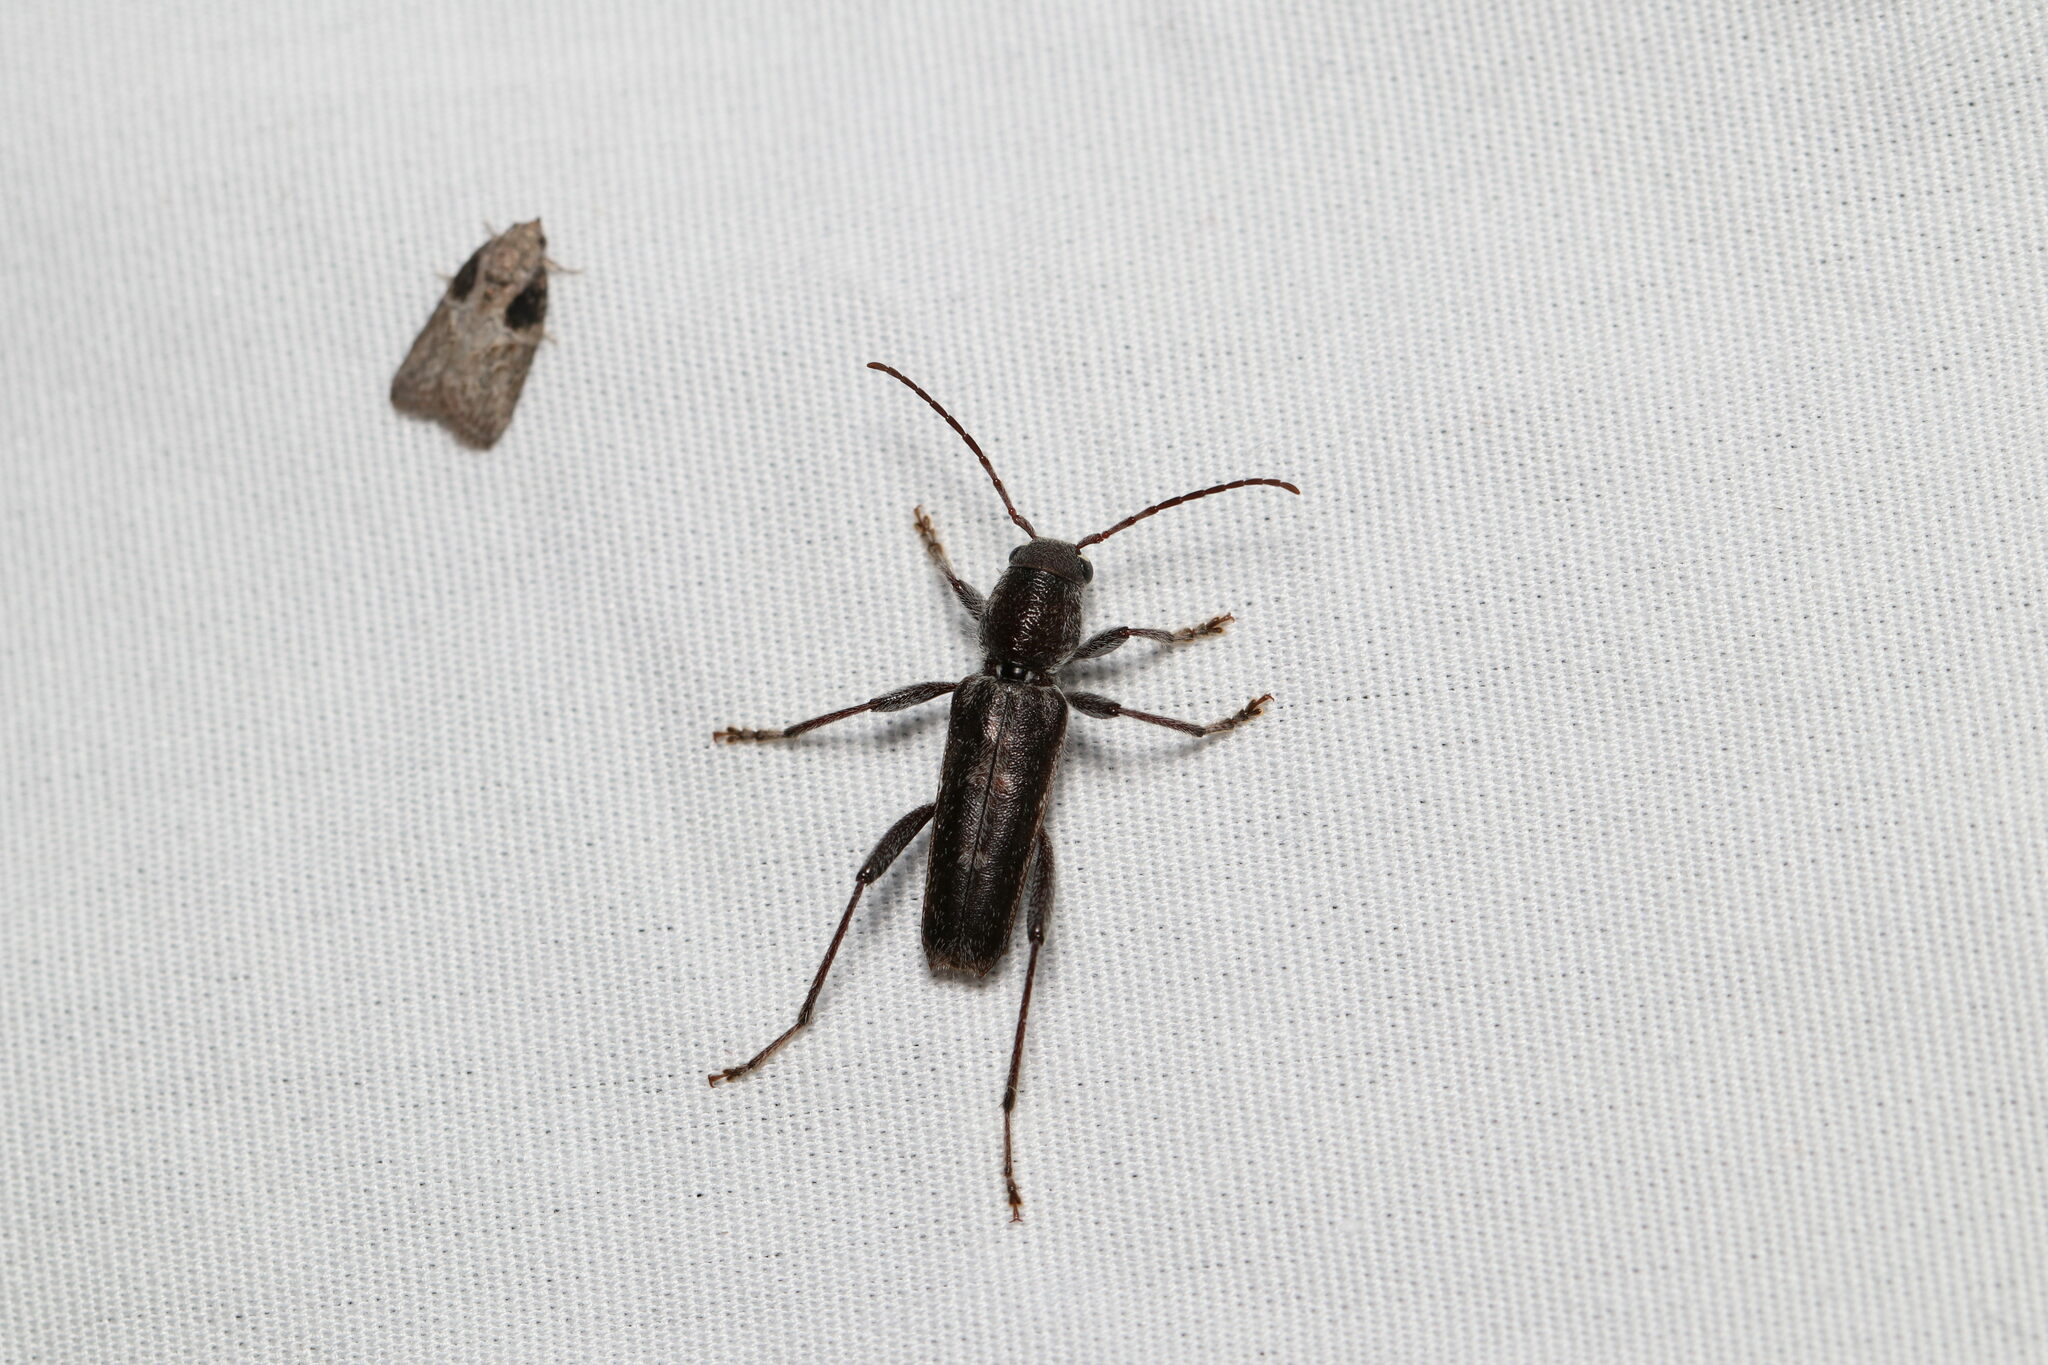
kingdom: Animalia
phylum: Arthropoda
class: Insecta
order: Coleoptera
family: Cerambycidae
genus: Xylotrechus
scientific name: Xylotrechus sagittatus
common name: Arrowhead borer
